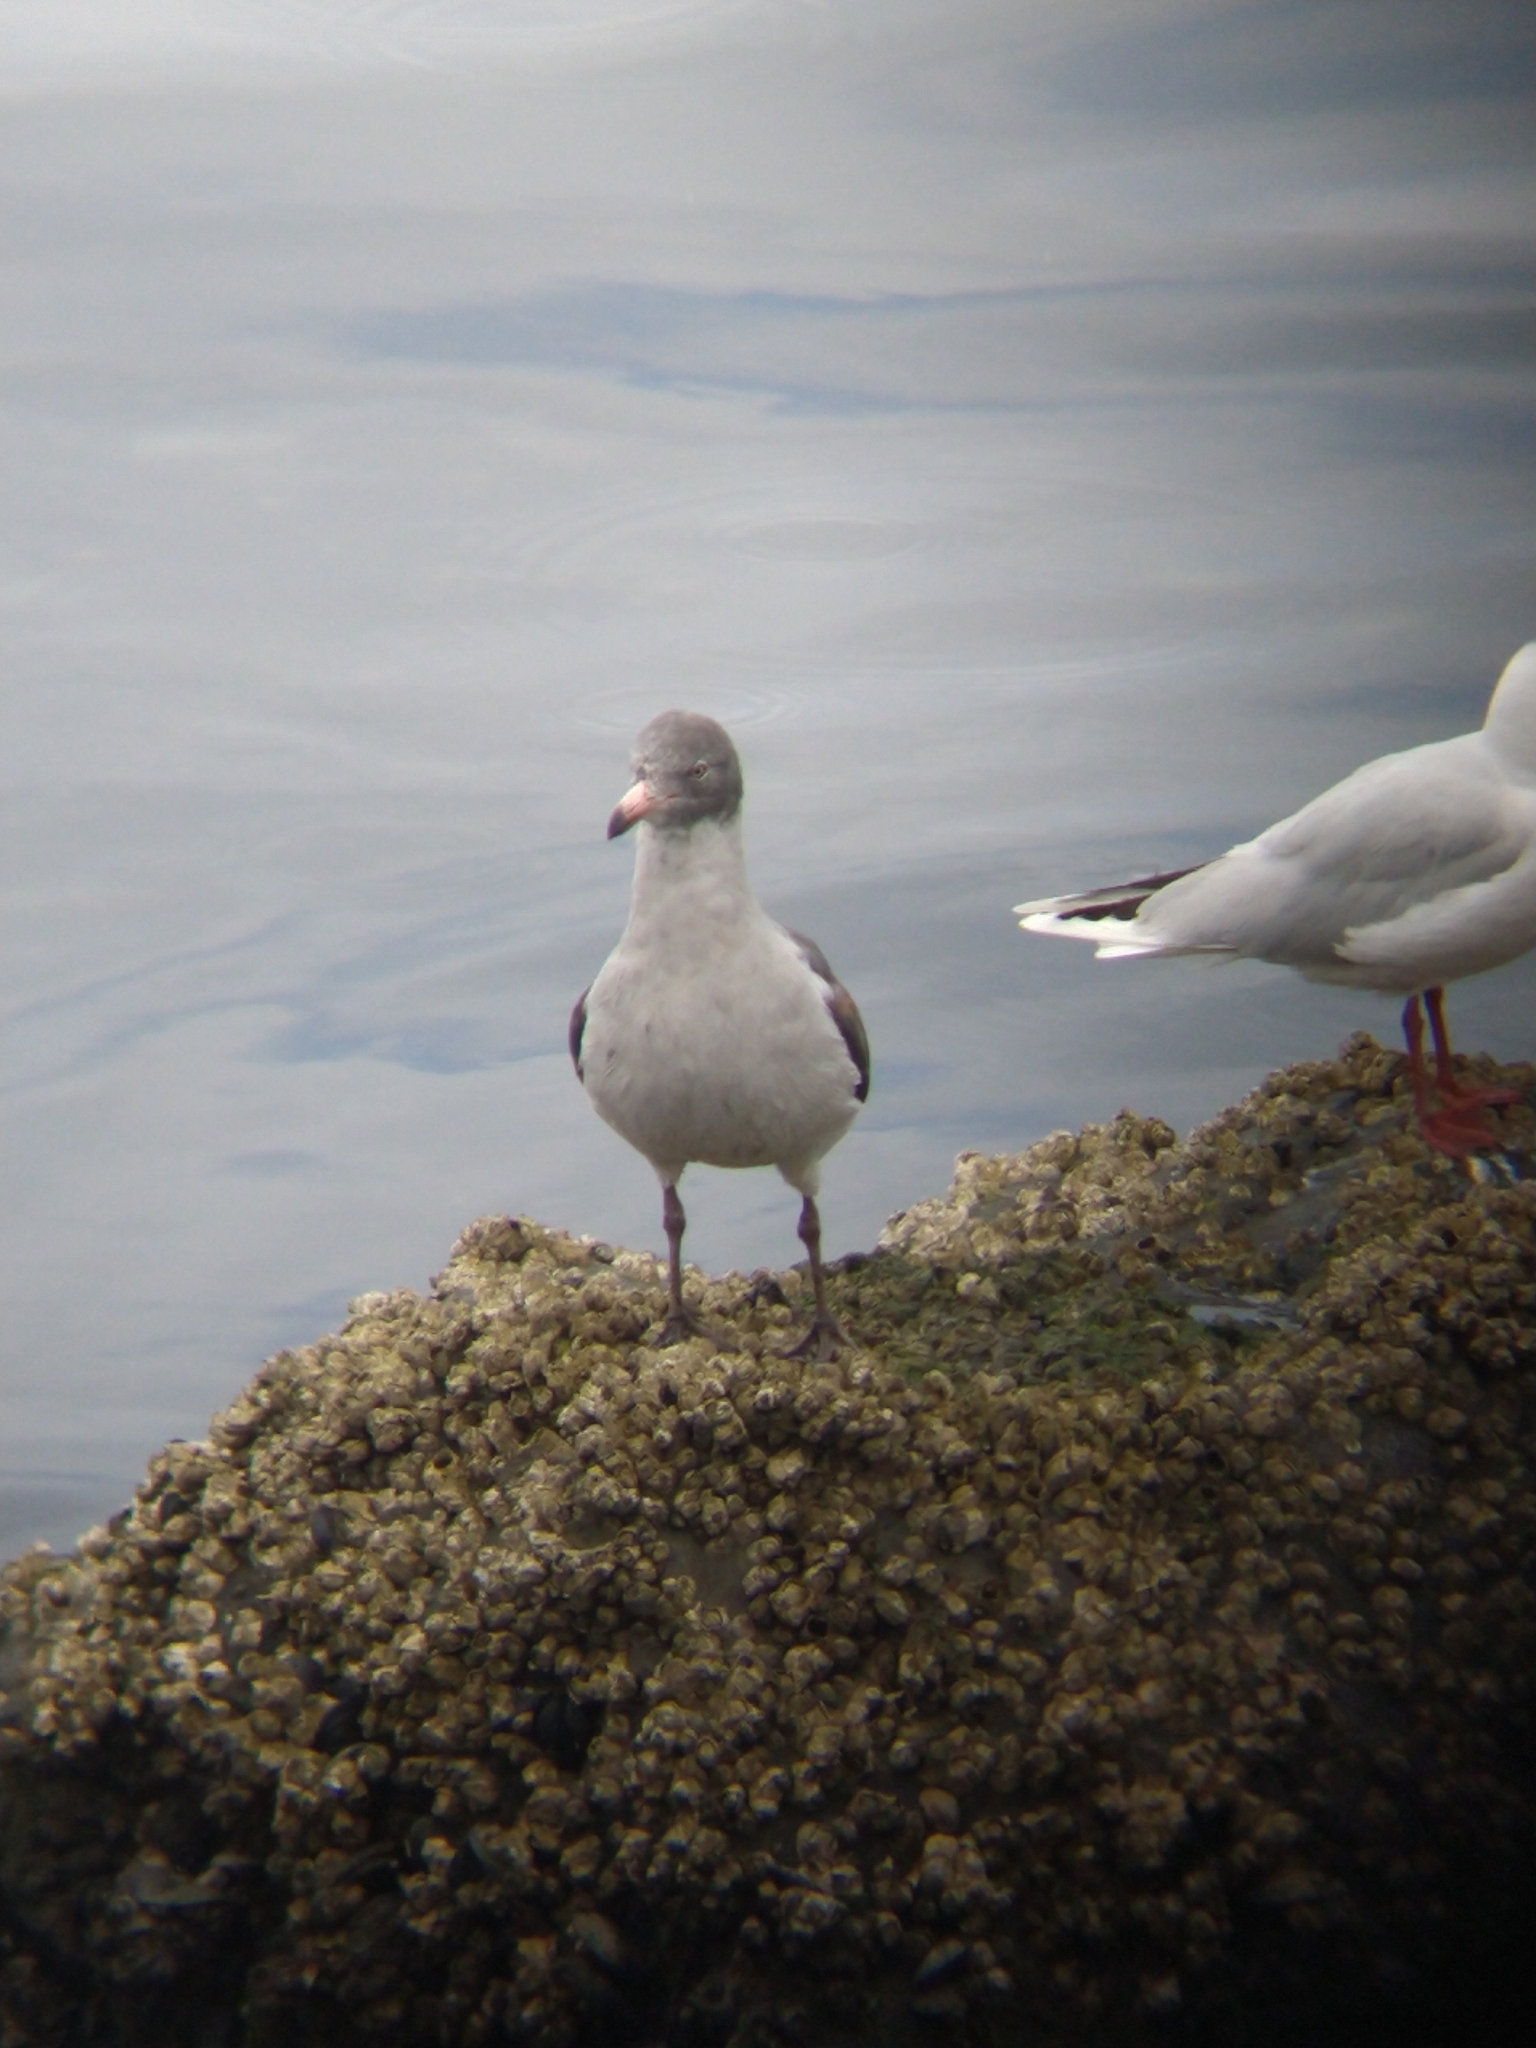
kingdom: Animalia
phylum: Chordata
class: Aves
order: Charadriiformes
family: Laridae
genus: Leucophaeus
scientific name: Leucophaeus scoresbii
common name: Dolphin gull
